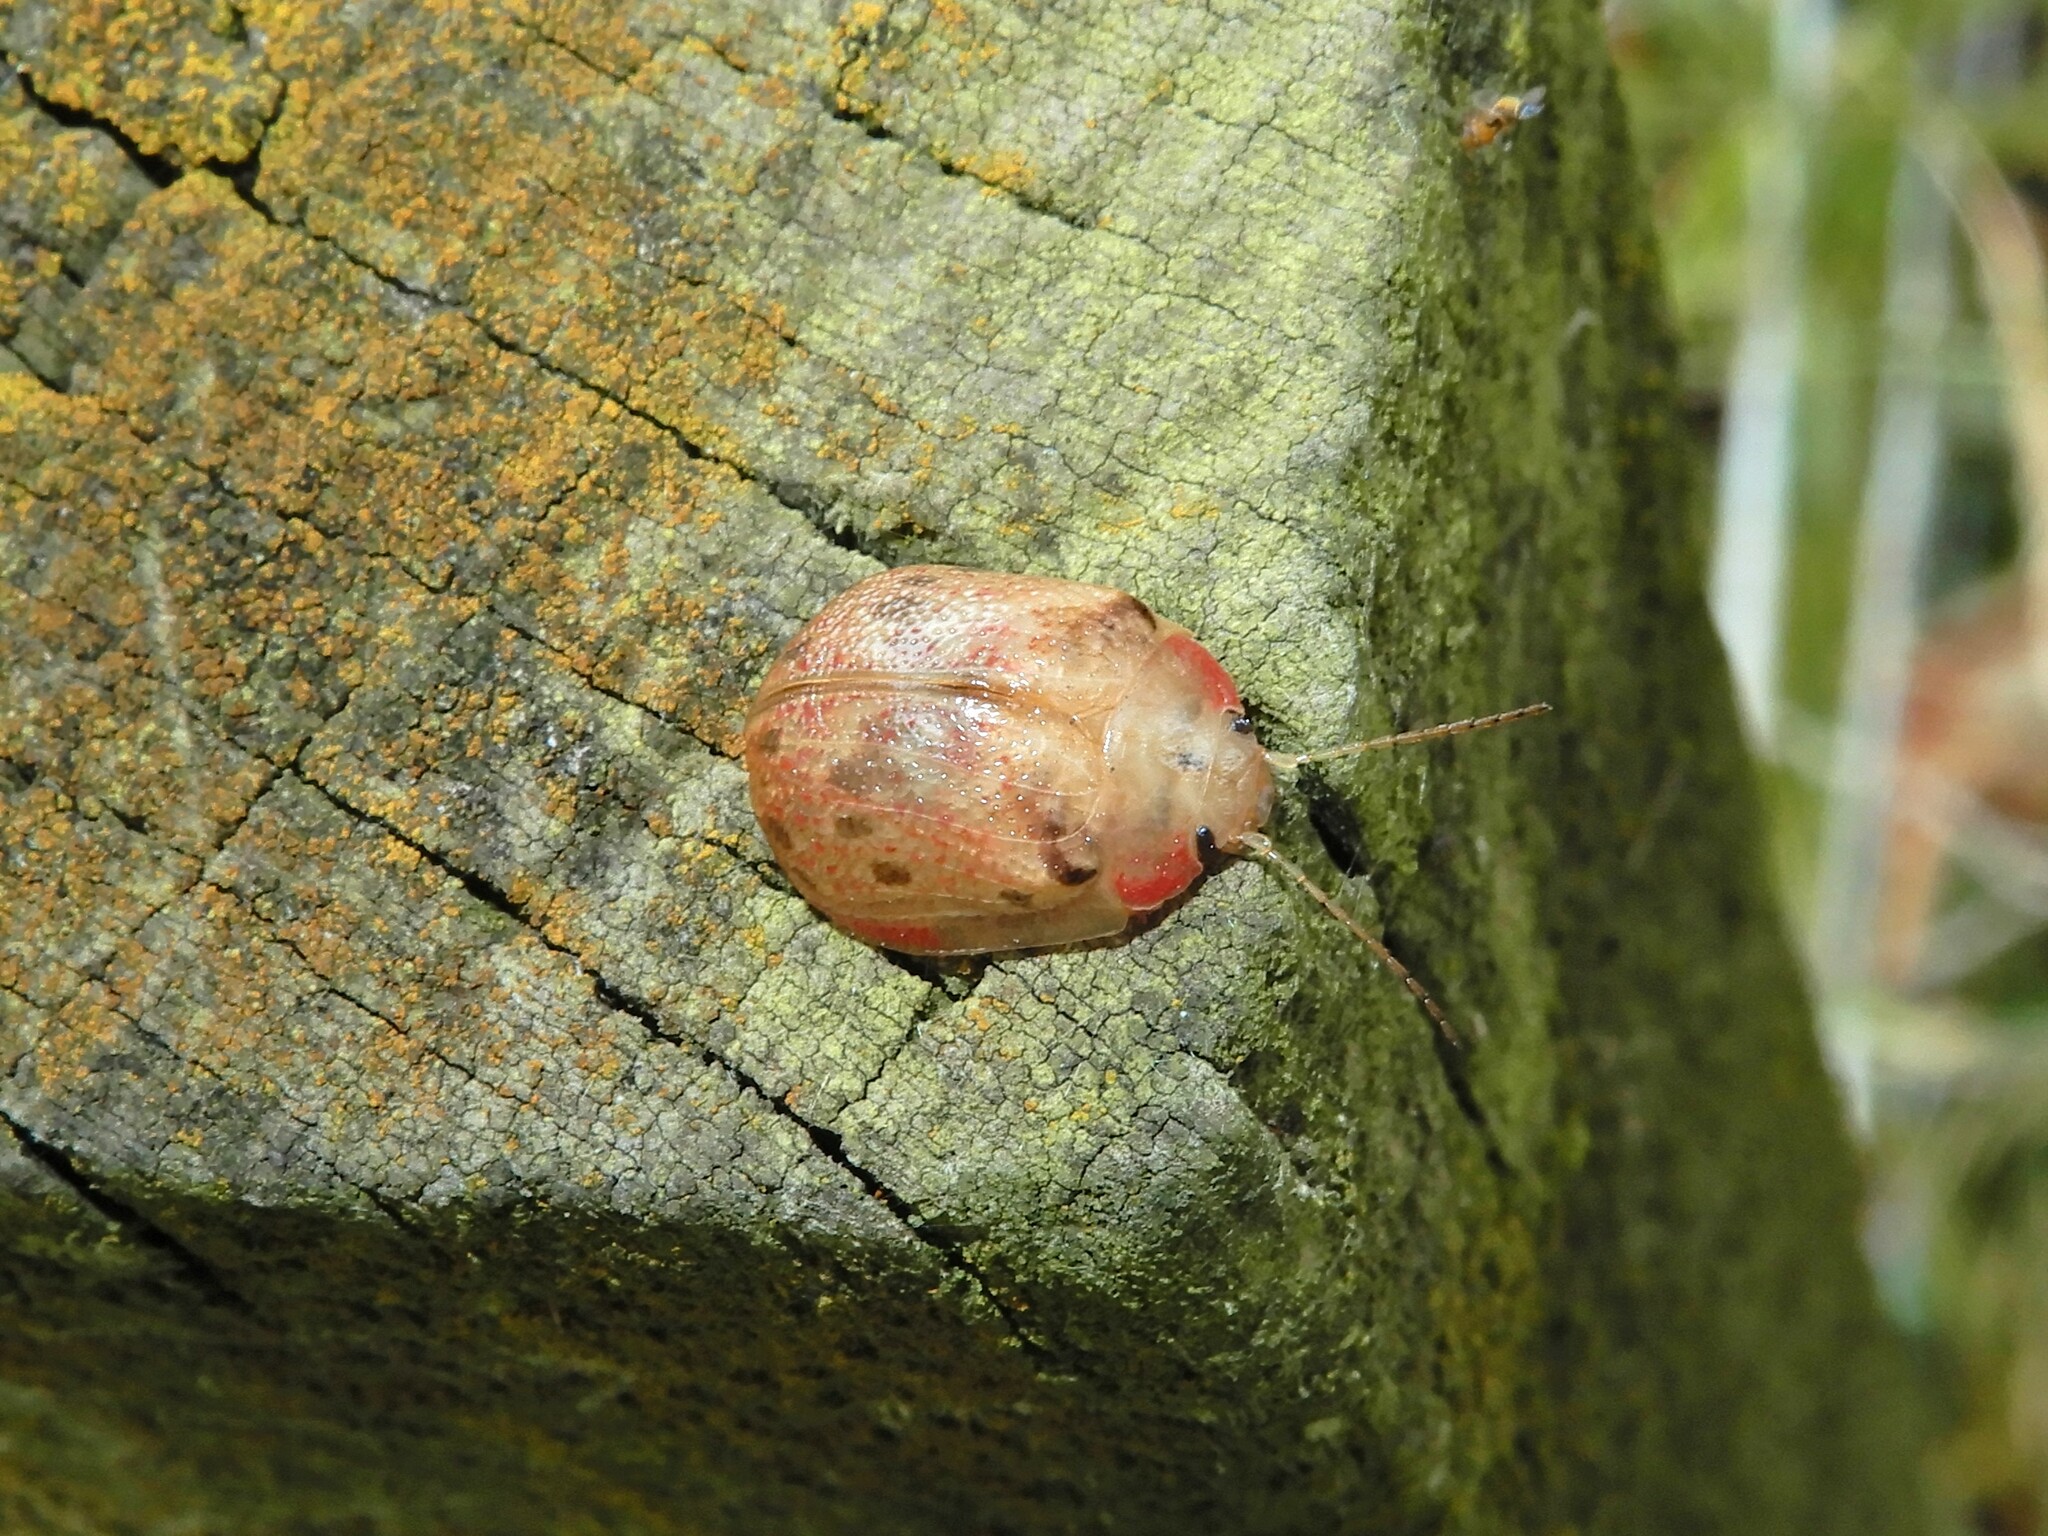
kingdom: Animalia
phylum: Arthropoda
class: Insecta
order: Coleoptera
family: Chrysomelidae
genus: Paropsis
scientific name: Paropsis charybdis
